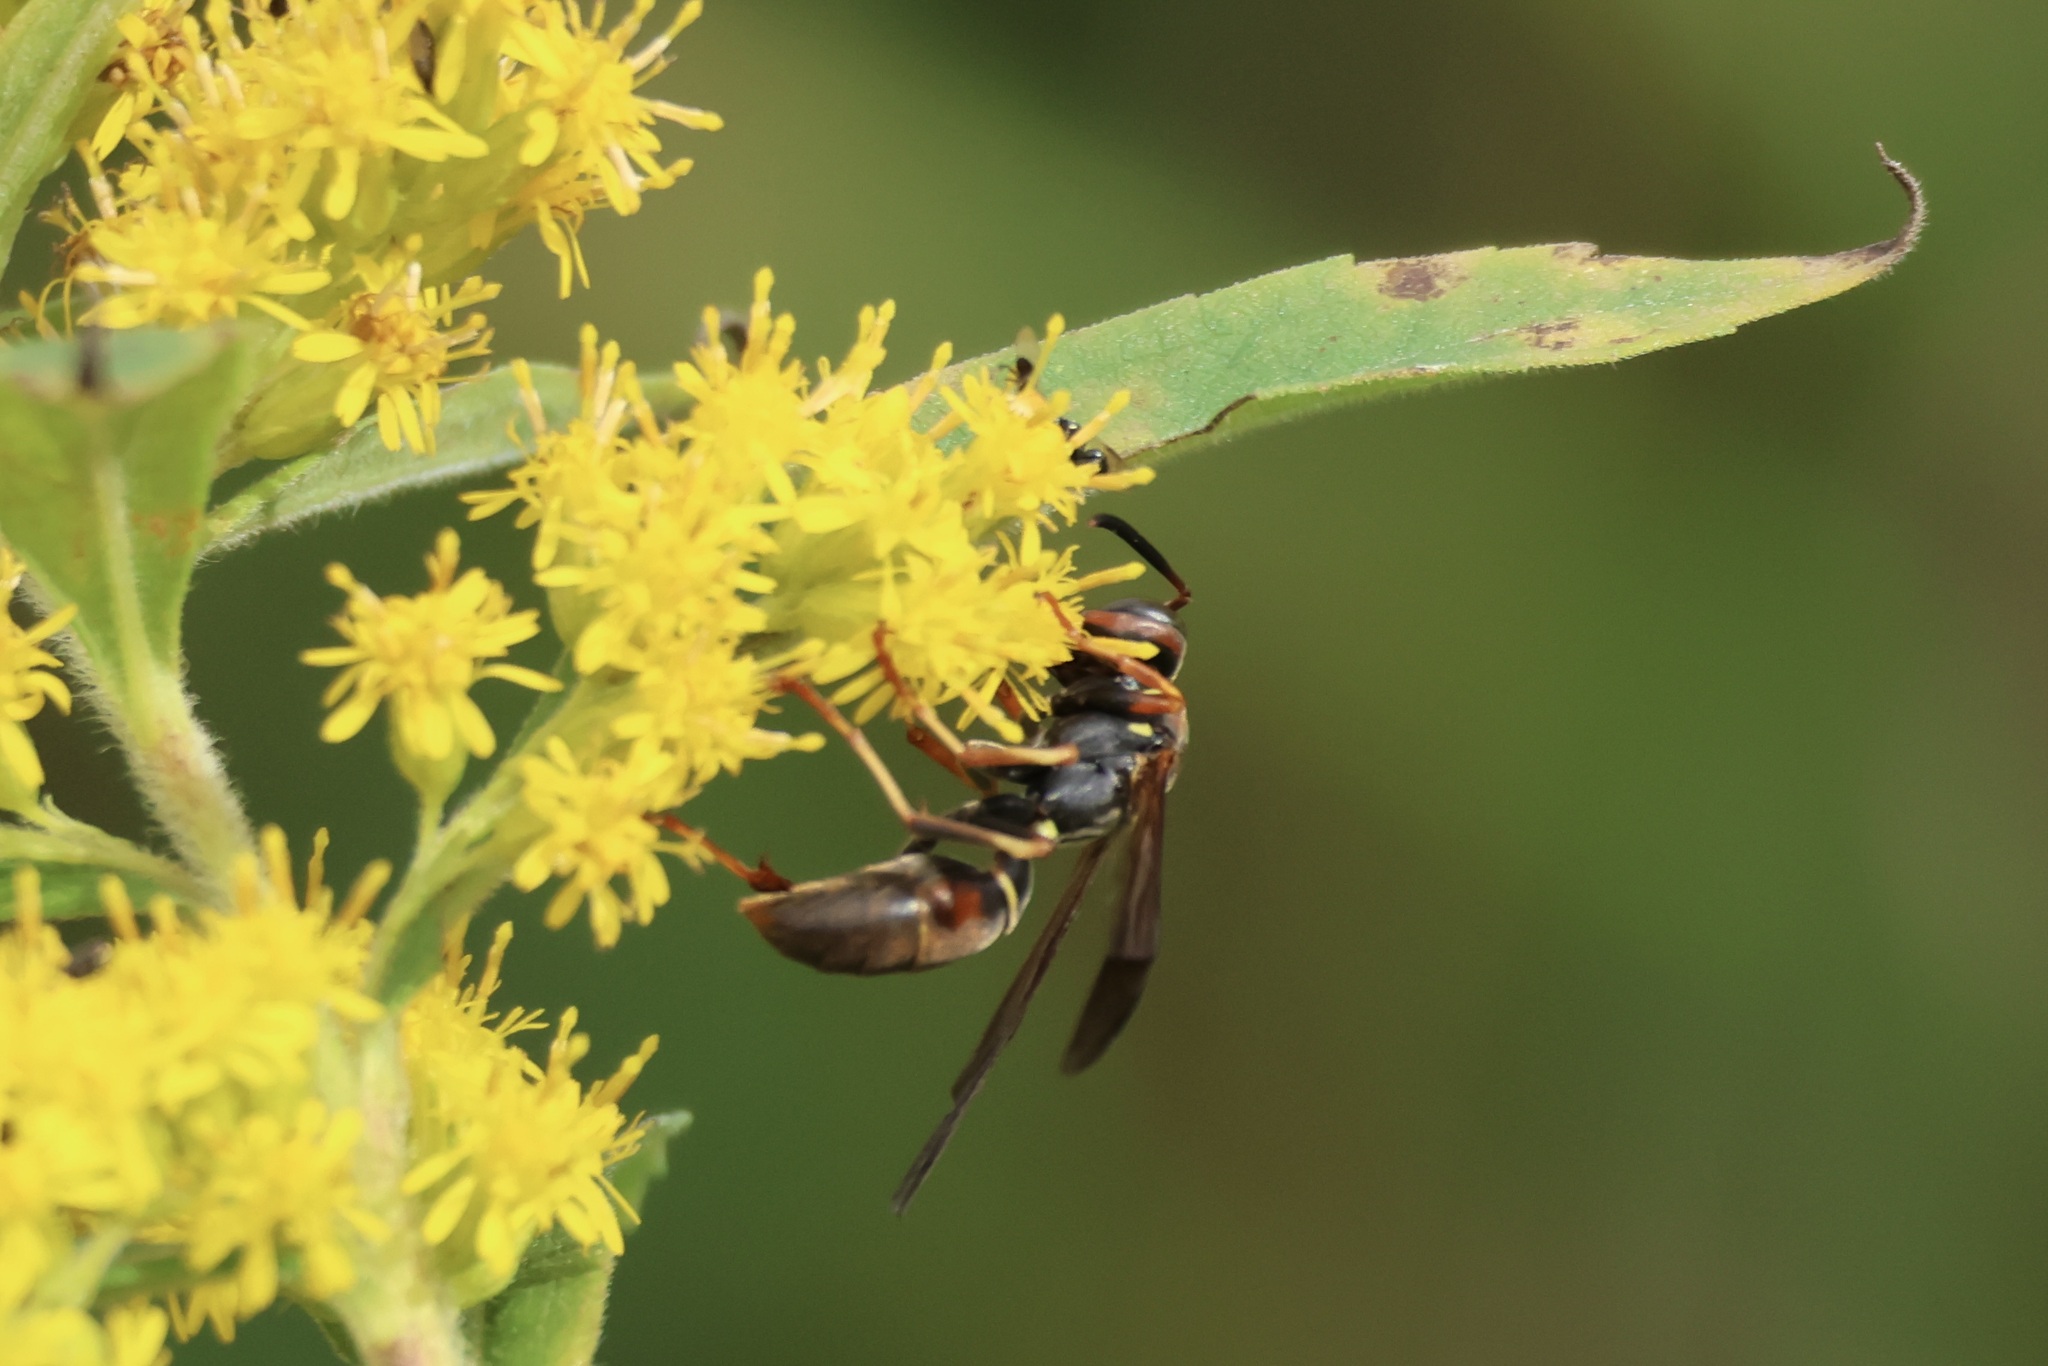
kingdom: Animalia
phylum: Arthropoda
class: Insecta
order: Hymenoptera
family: Eumenidae
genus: Polistes
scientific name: Polistes fuscatus
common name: Dark paper wasp
